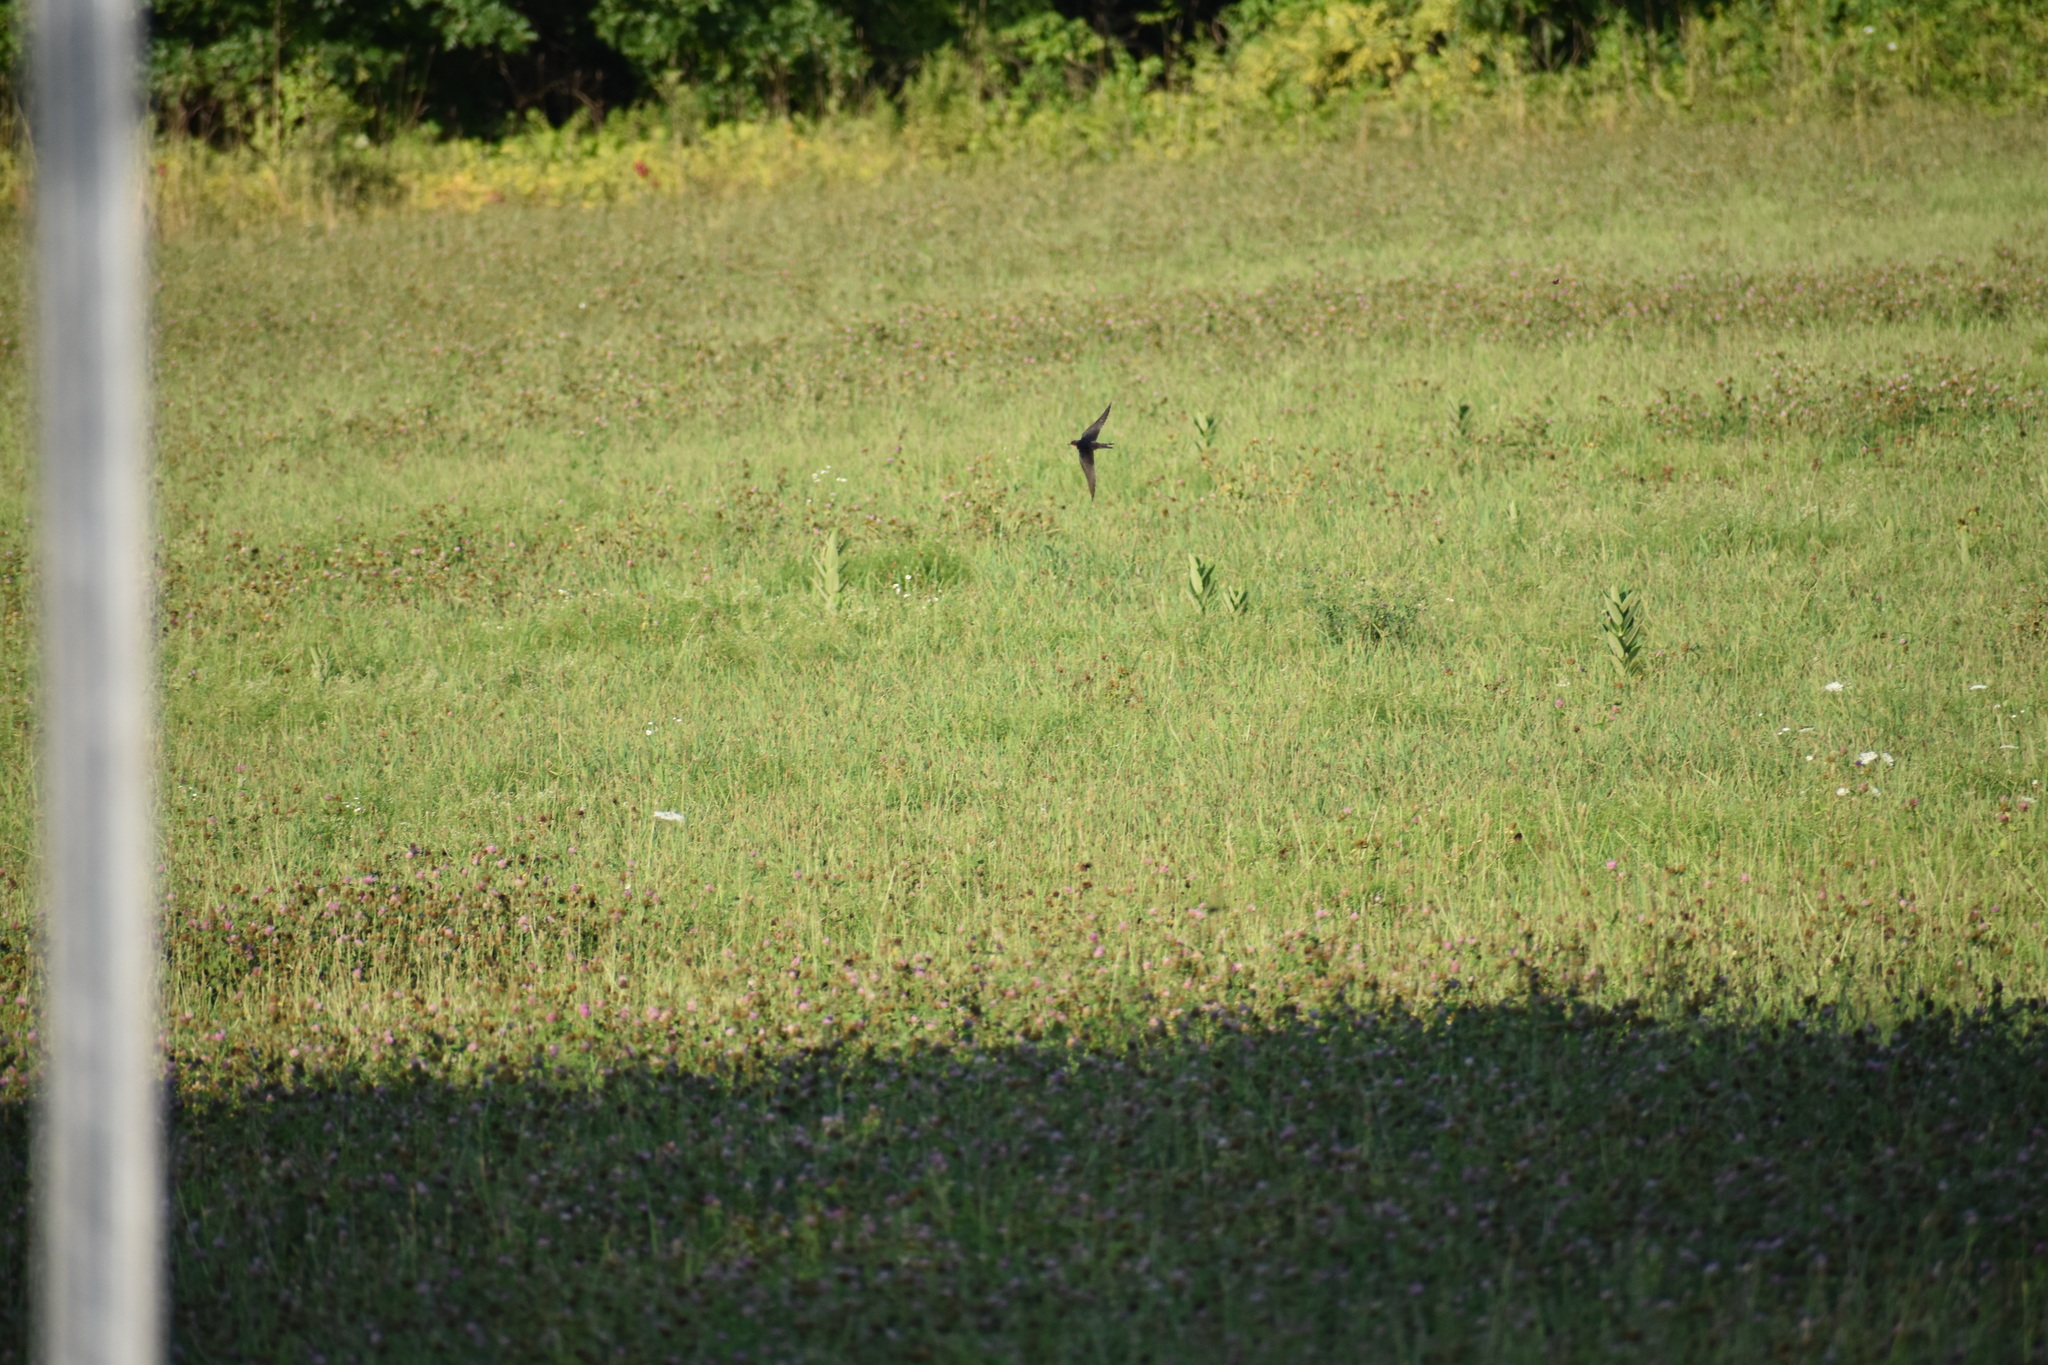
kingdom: Animalia
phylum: Chordata
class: Aves
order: Passeriformes
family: Hirundinidae
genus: Hirundo
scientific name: Hirundo rustica
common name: Barn swallow
